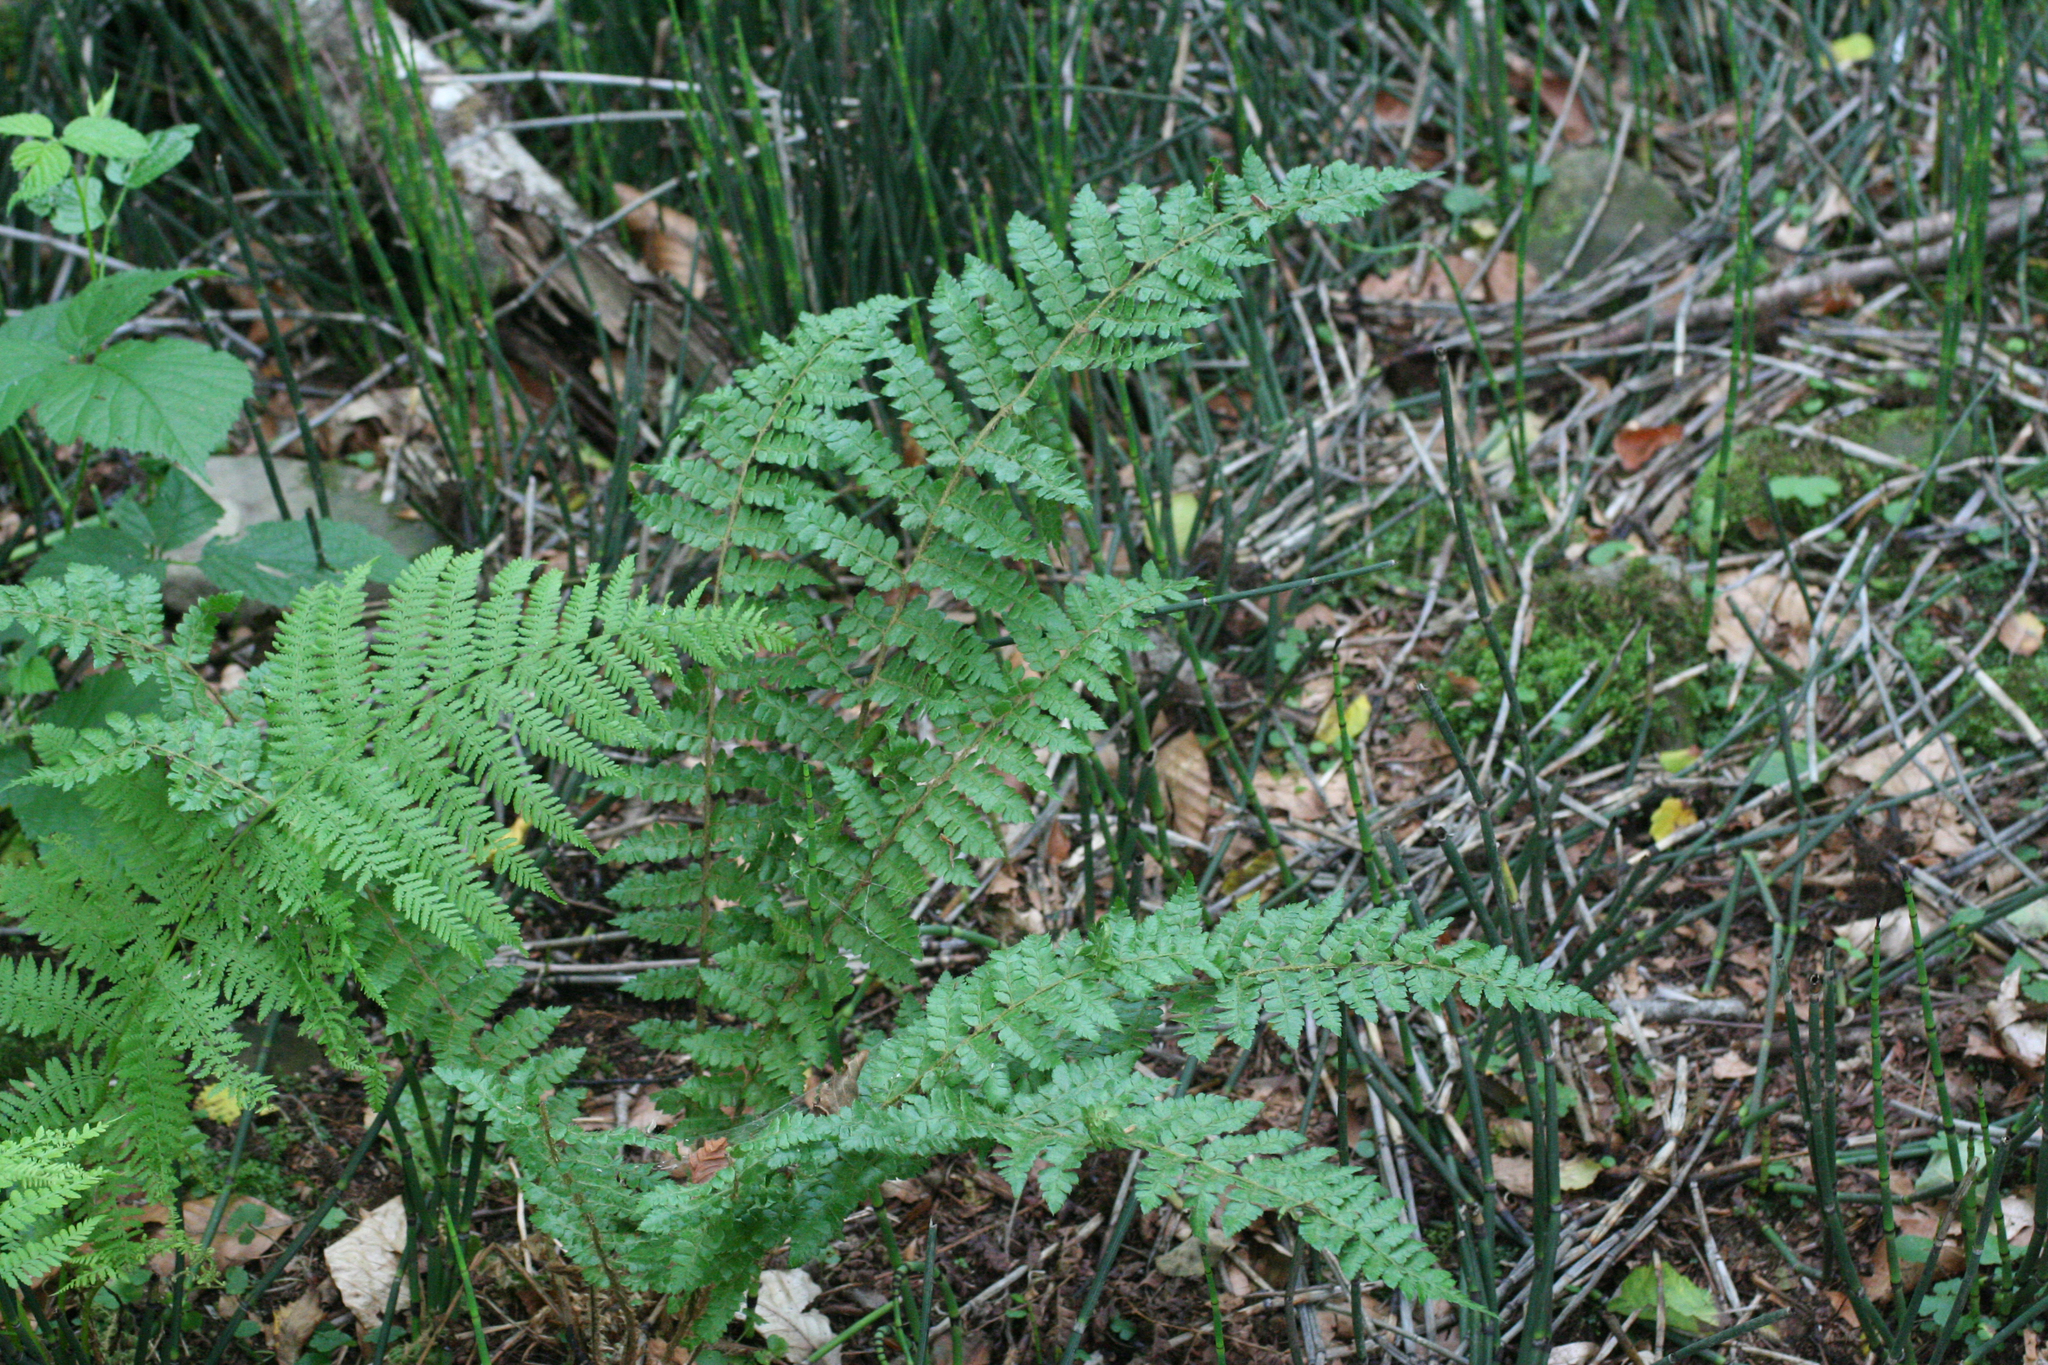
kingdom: Plantae
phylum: Tracheophyta
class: Polypodiopsida
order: Polypodiales
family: Dryopteridaceae
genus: Polystichum
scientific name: Polystichum braunii
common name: Braun's holly fern
